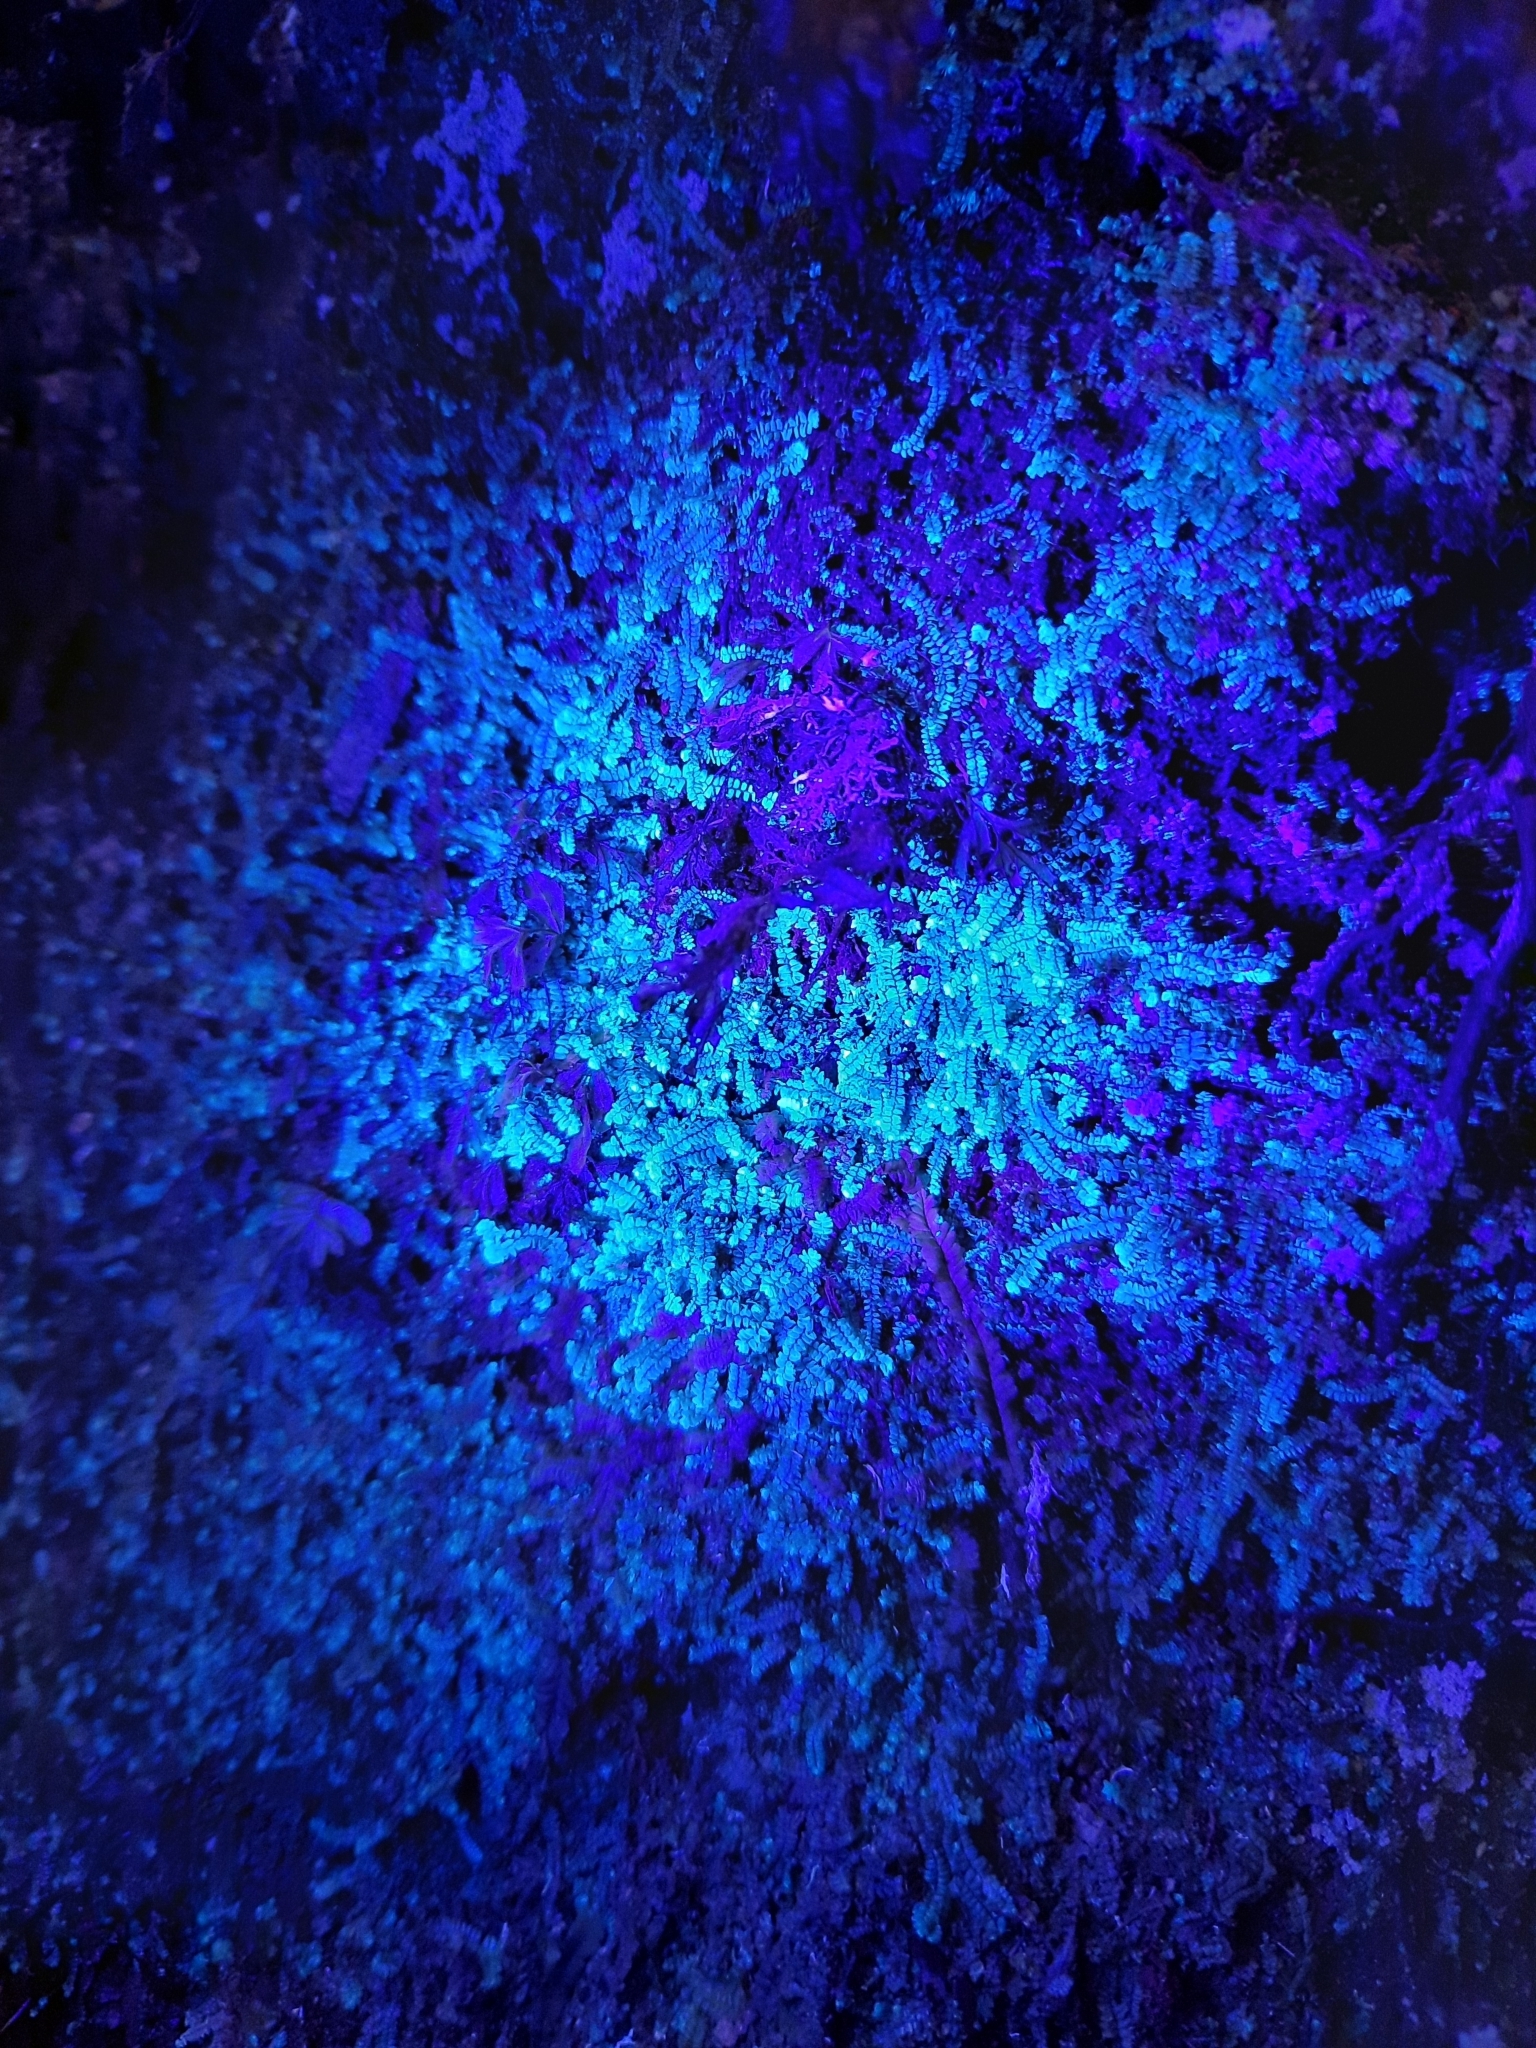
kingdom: Plantae
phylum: Marchantiophyta
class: Jungermanniopsida
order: Jungermanniales
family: Lepidoziaceae
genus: Bazzania
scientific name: Bazzania tayloriana
